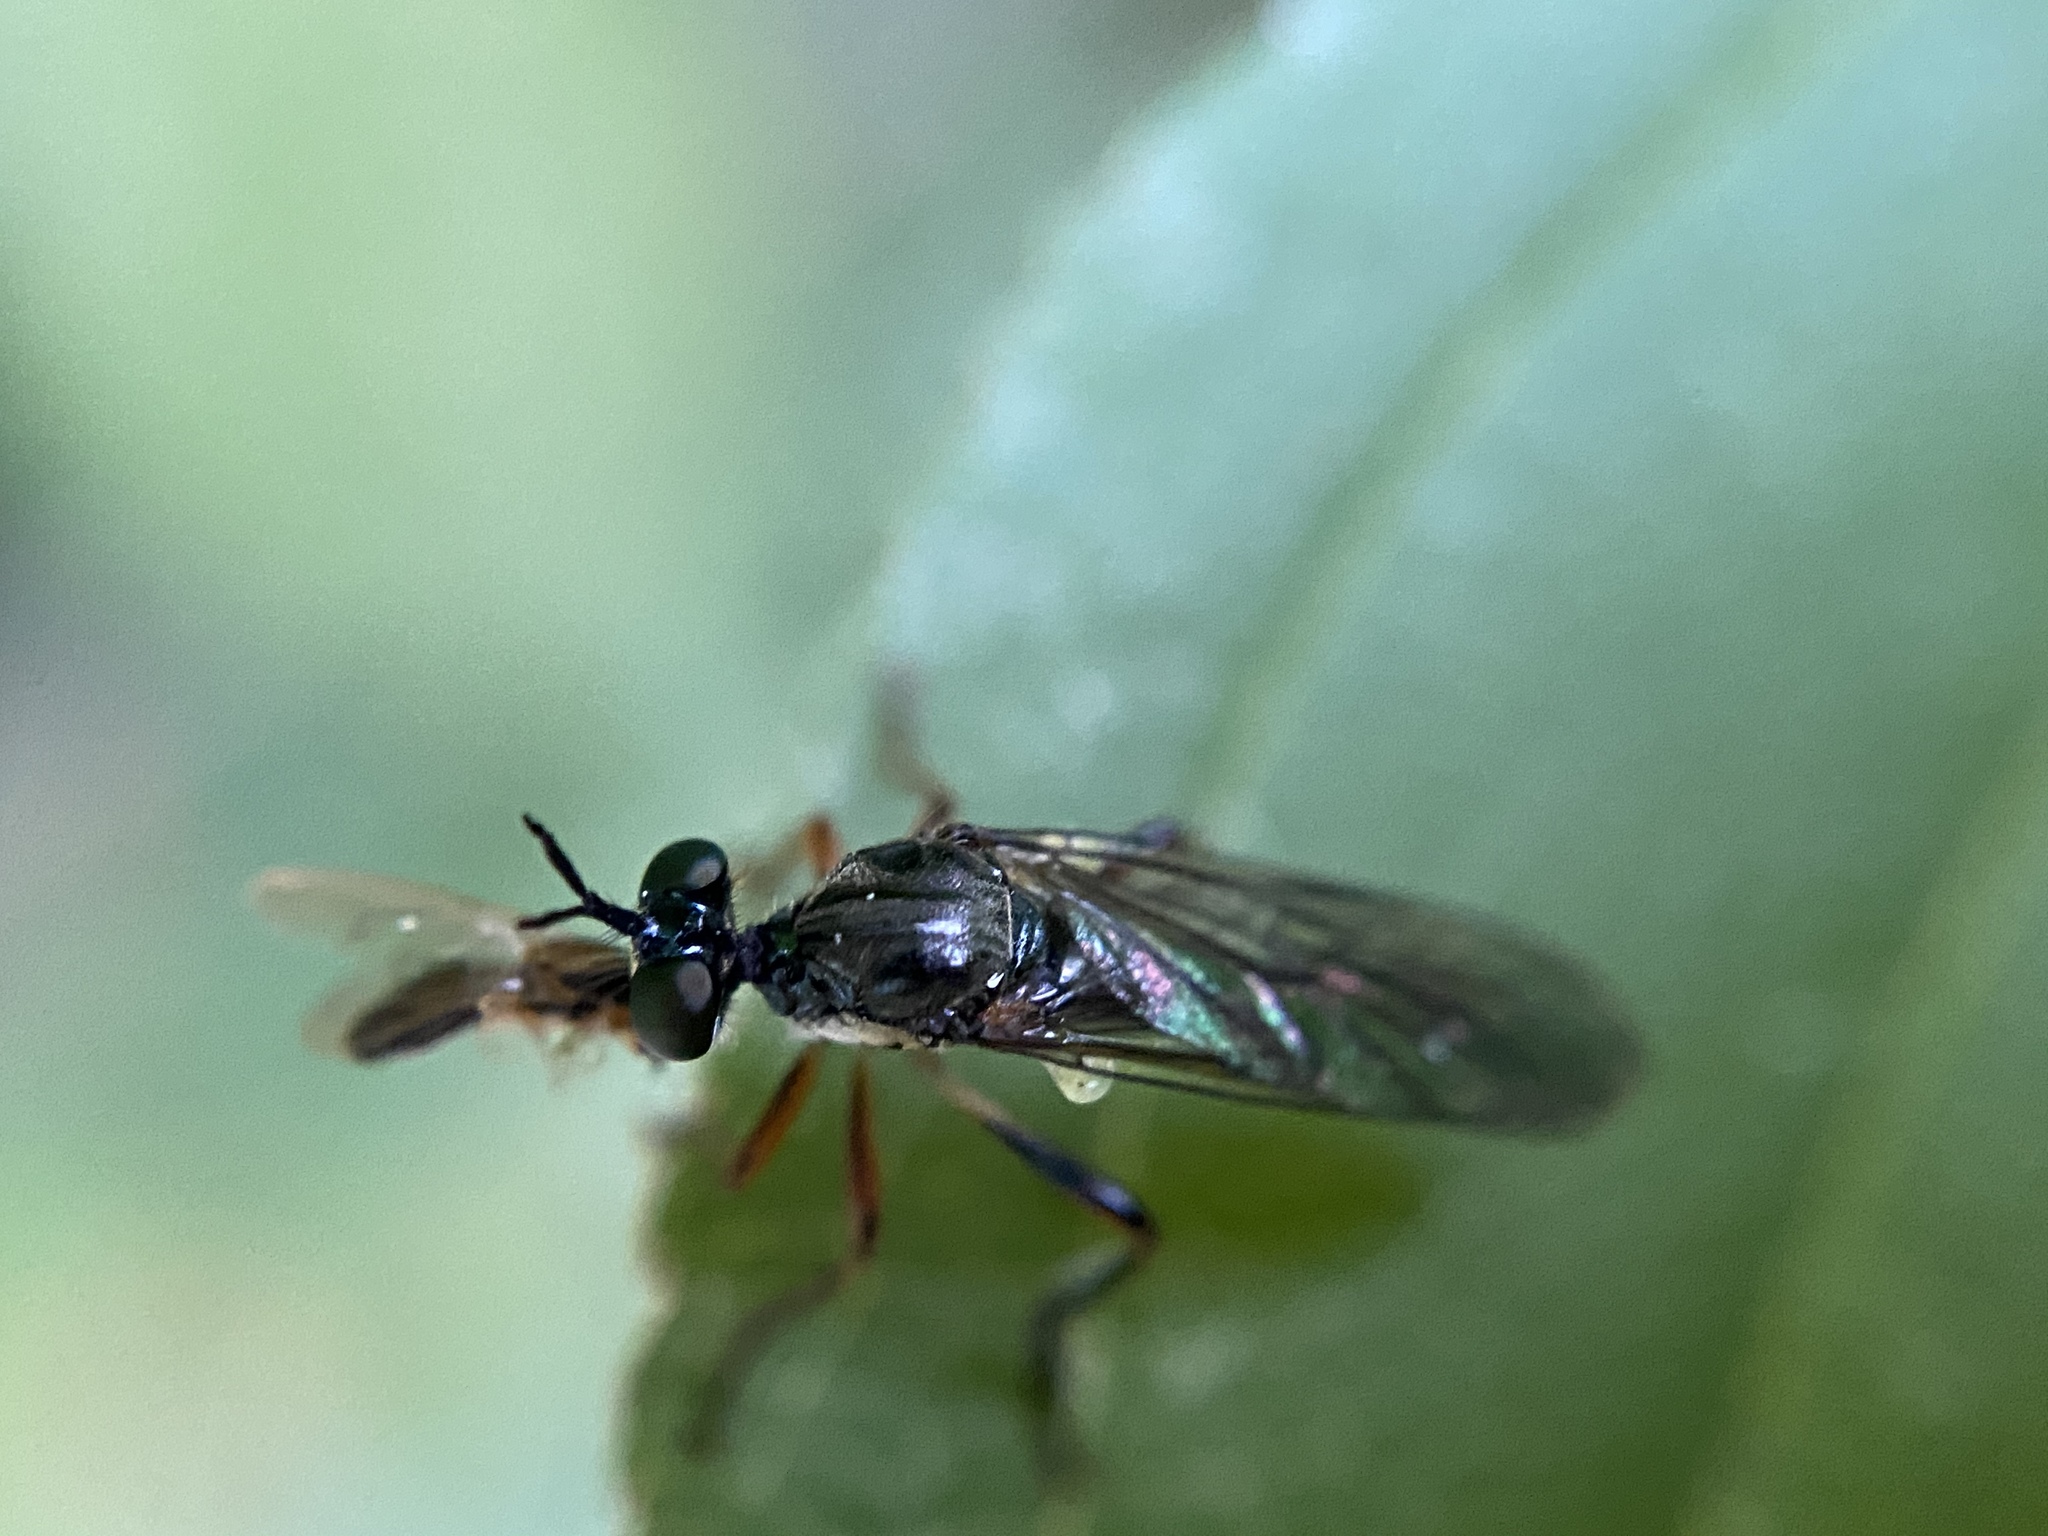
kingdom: Animalia
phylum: Arthropoda
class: Insecta
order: Diptera
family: Asilidae
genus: Dioctria
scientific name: Dioctria hyalipennis
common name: Stripe-legged robberfly
